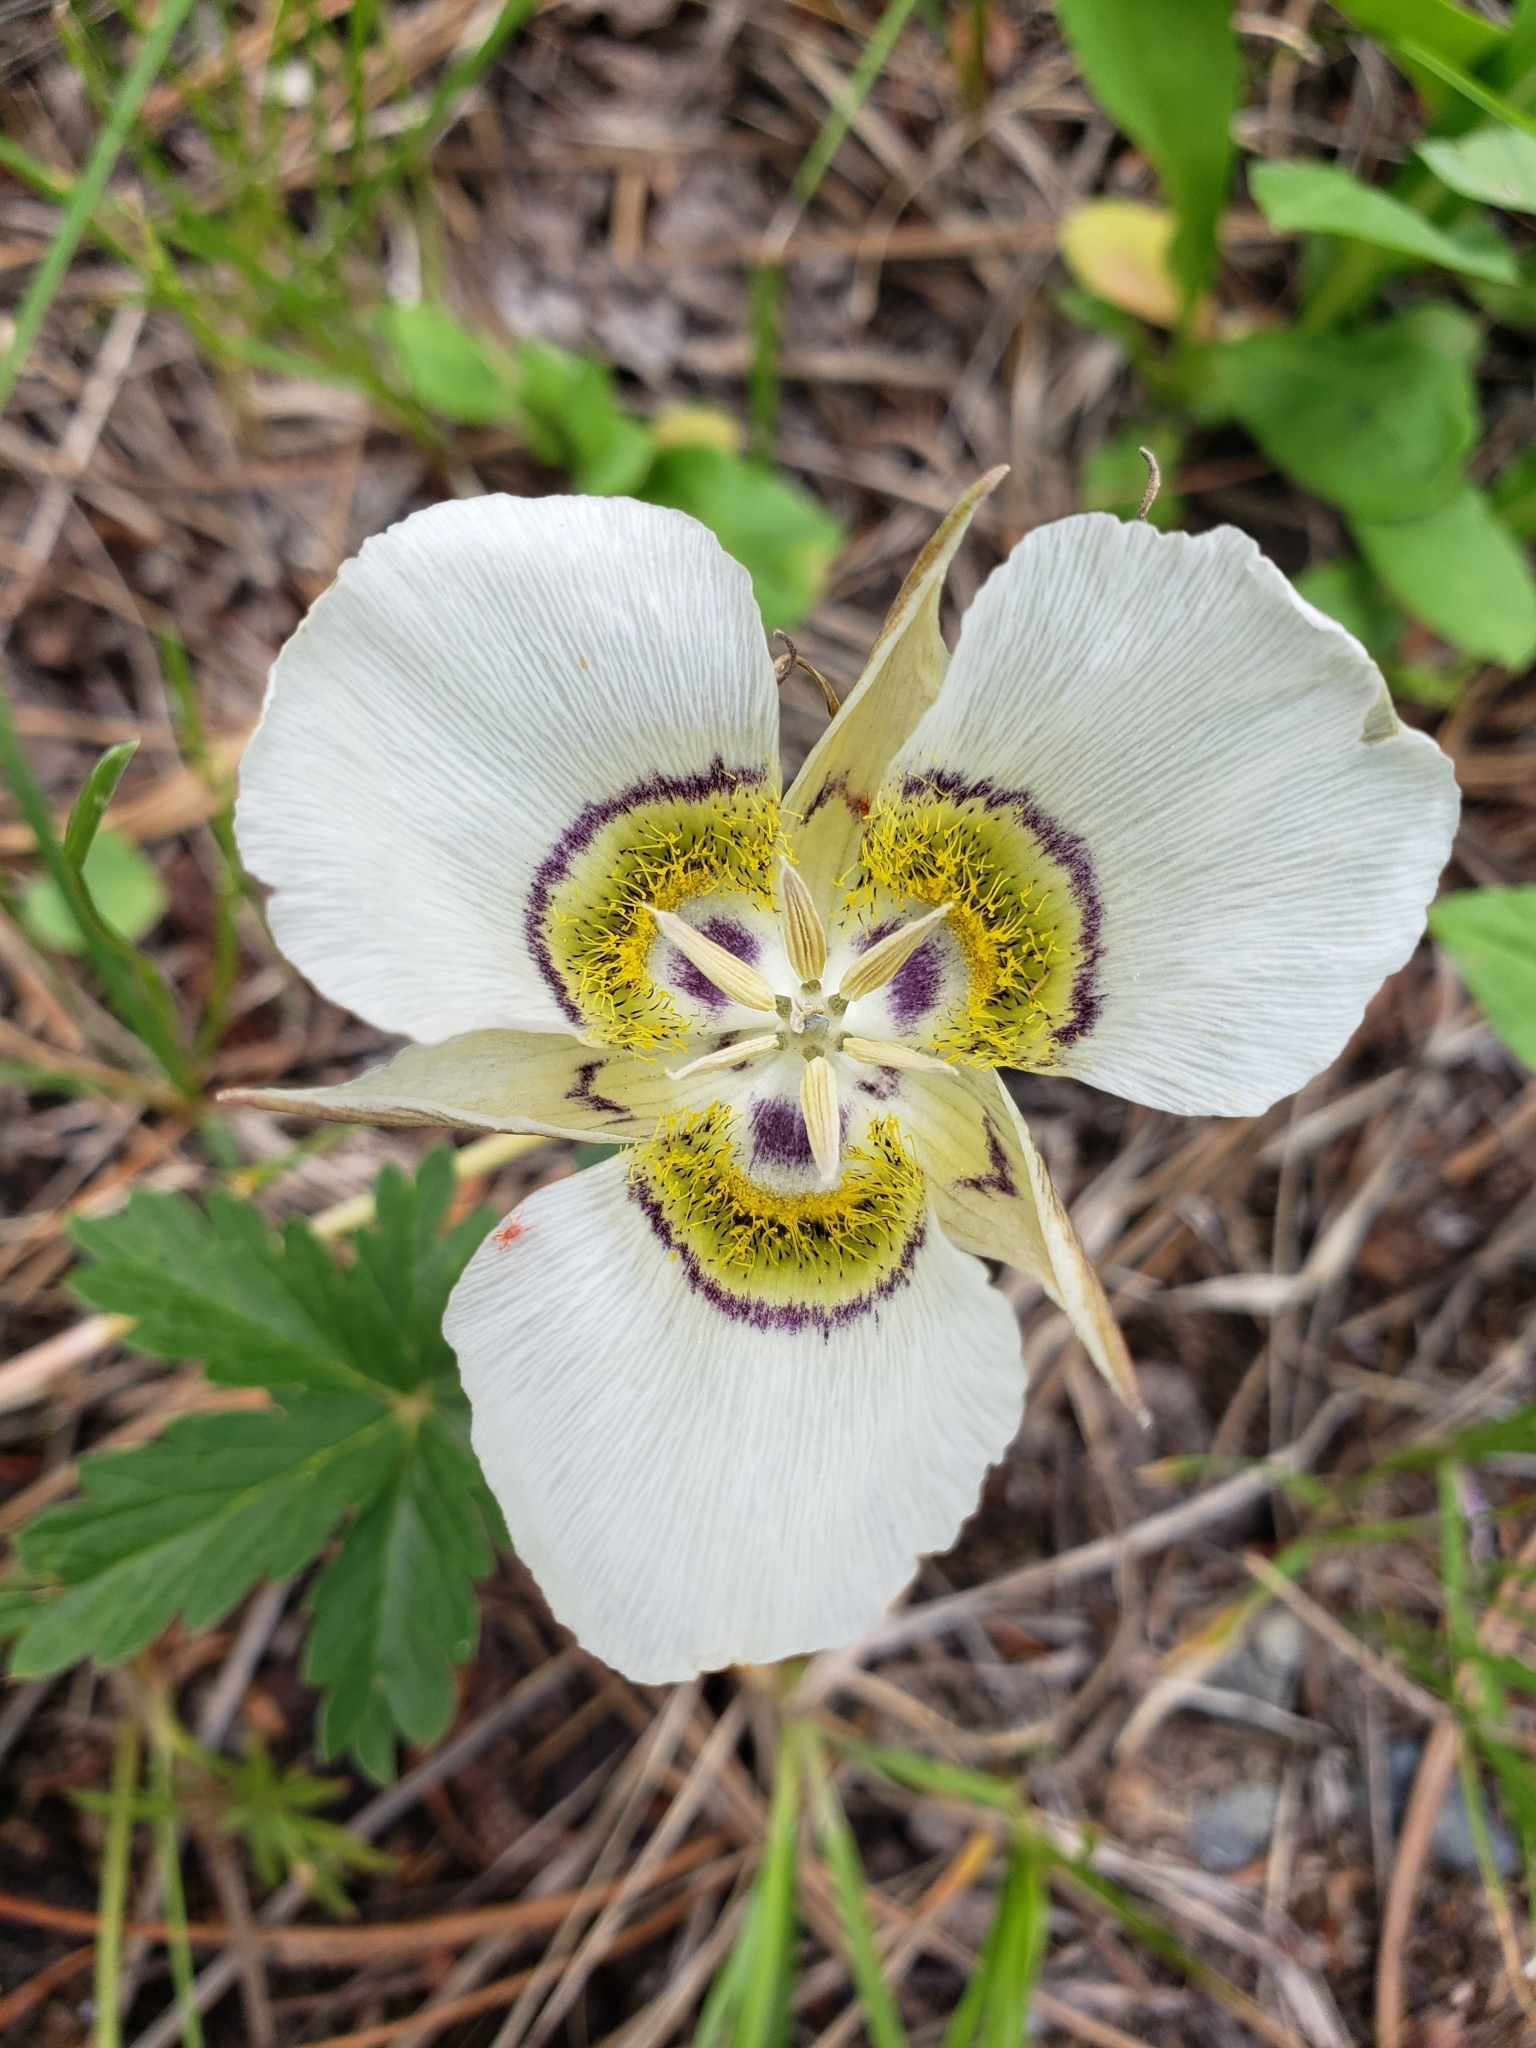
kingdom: Plantae
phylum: Tracheophyta
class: Liliopsida
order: Liliales
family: Liliaceae
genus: Calochortus
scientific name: Calochortus gunnisonii
